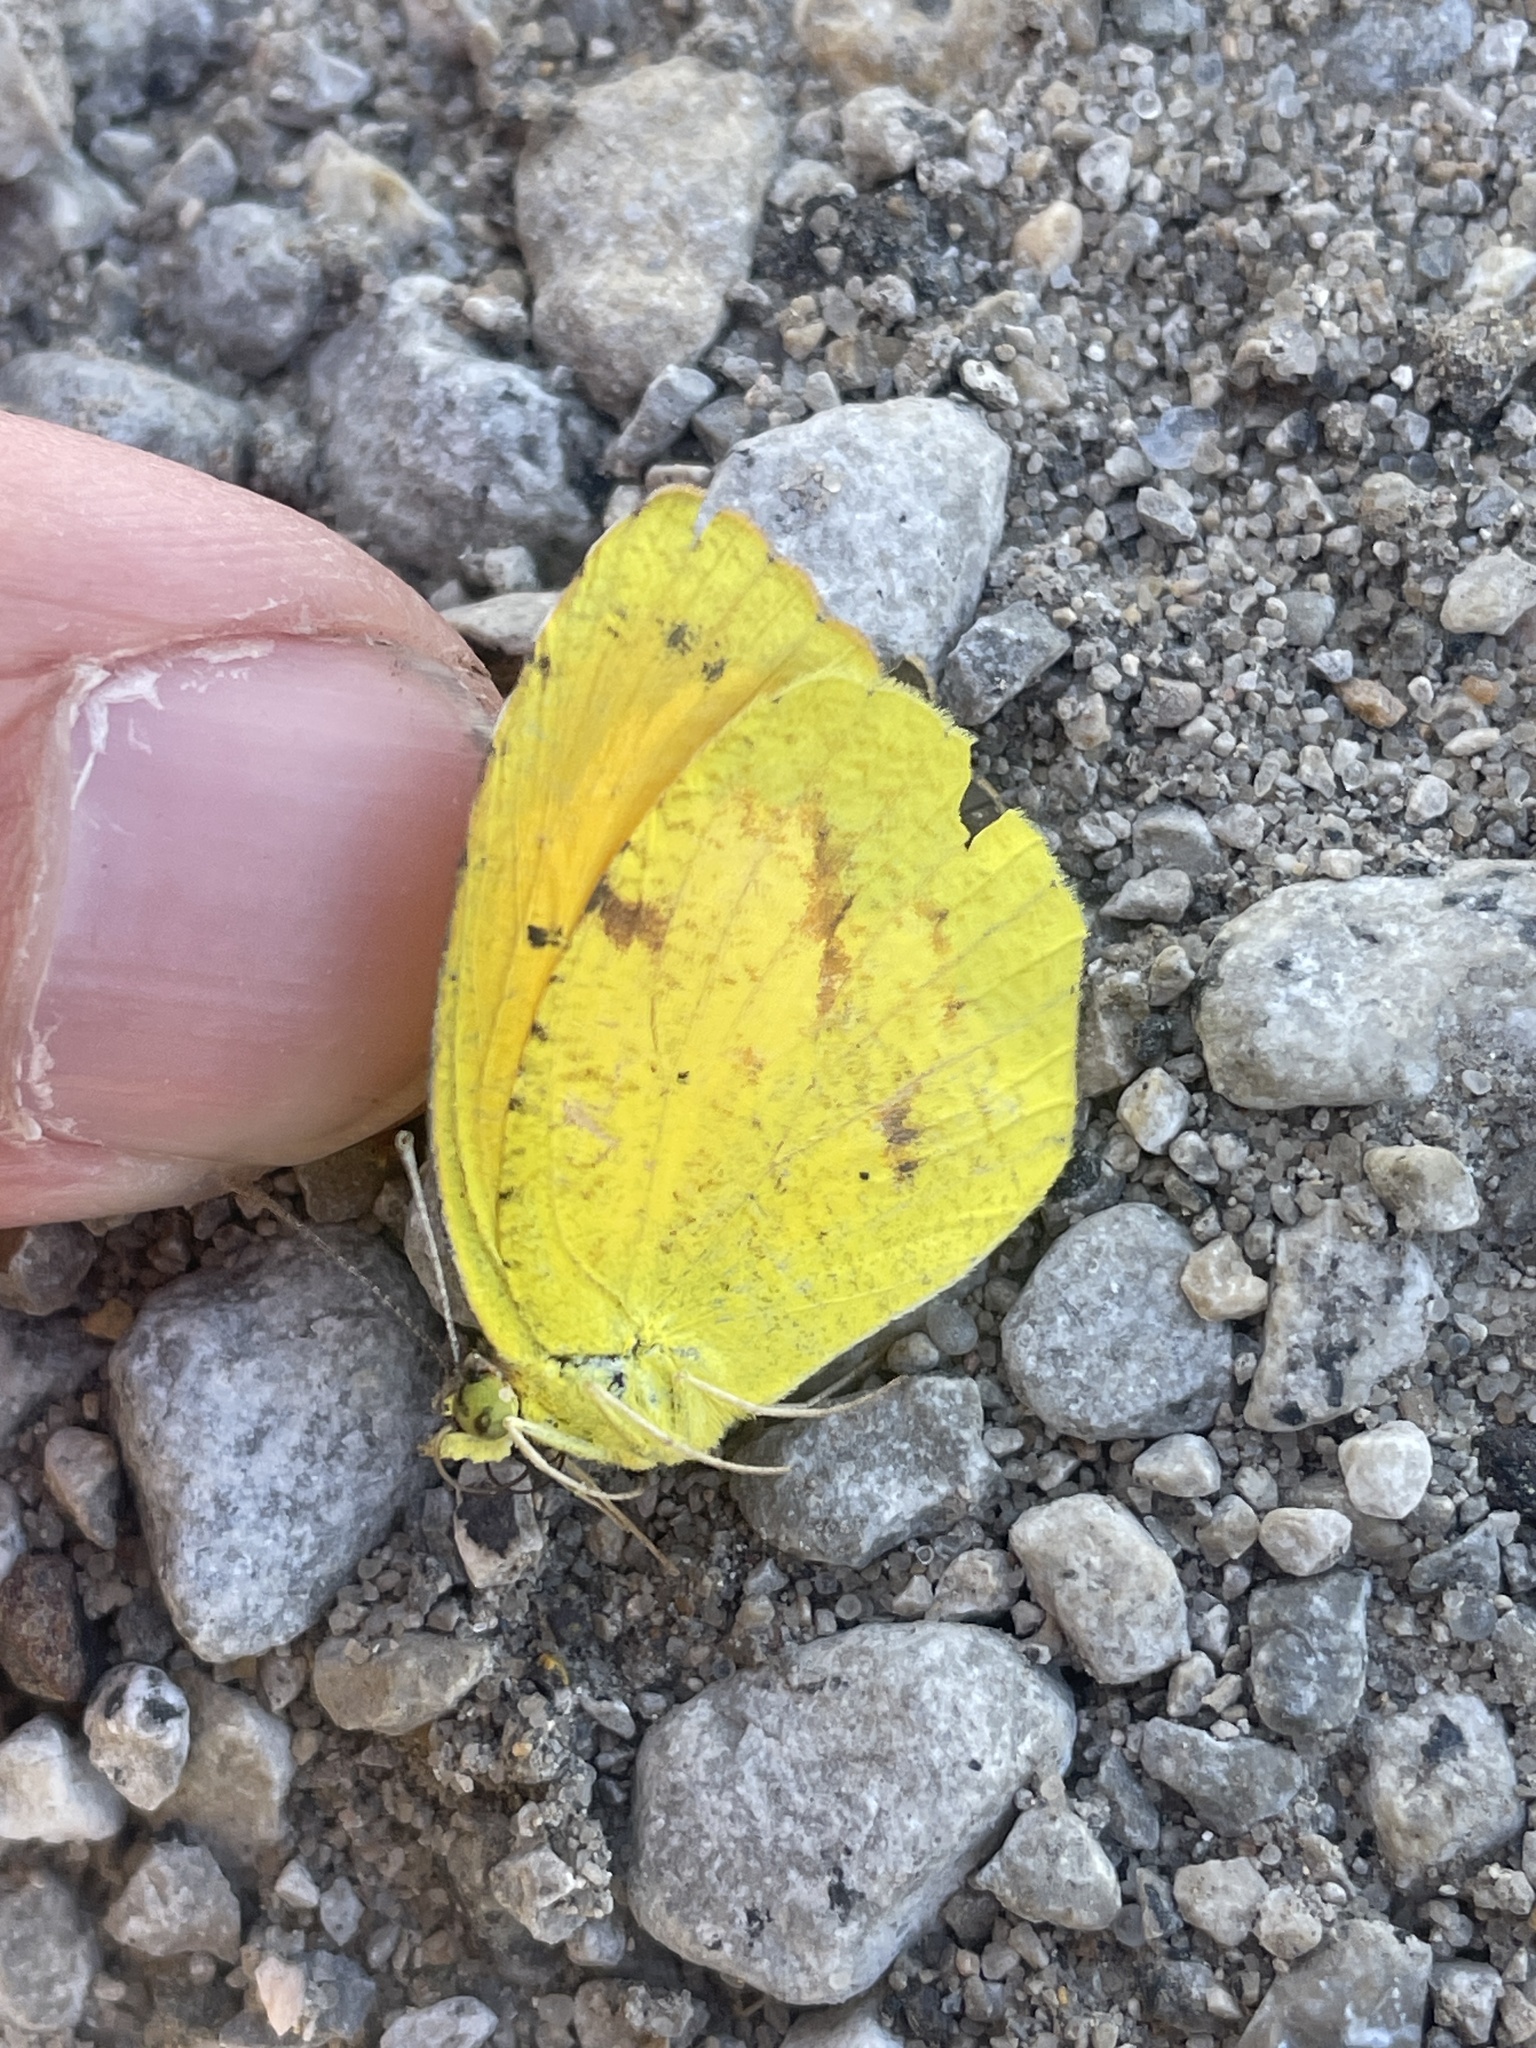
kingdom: Animalia
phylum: Arthropoda
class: Insecta
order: Lepidoptera
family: Pieridae
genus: Abaeis
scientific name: Abaeis nicippe
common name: Sleepy orange
